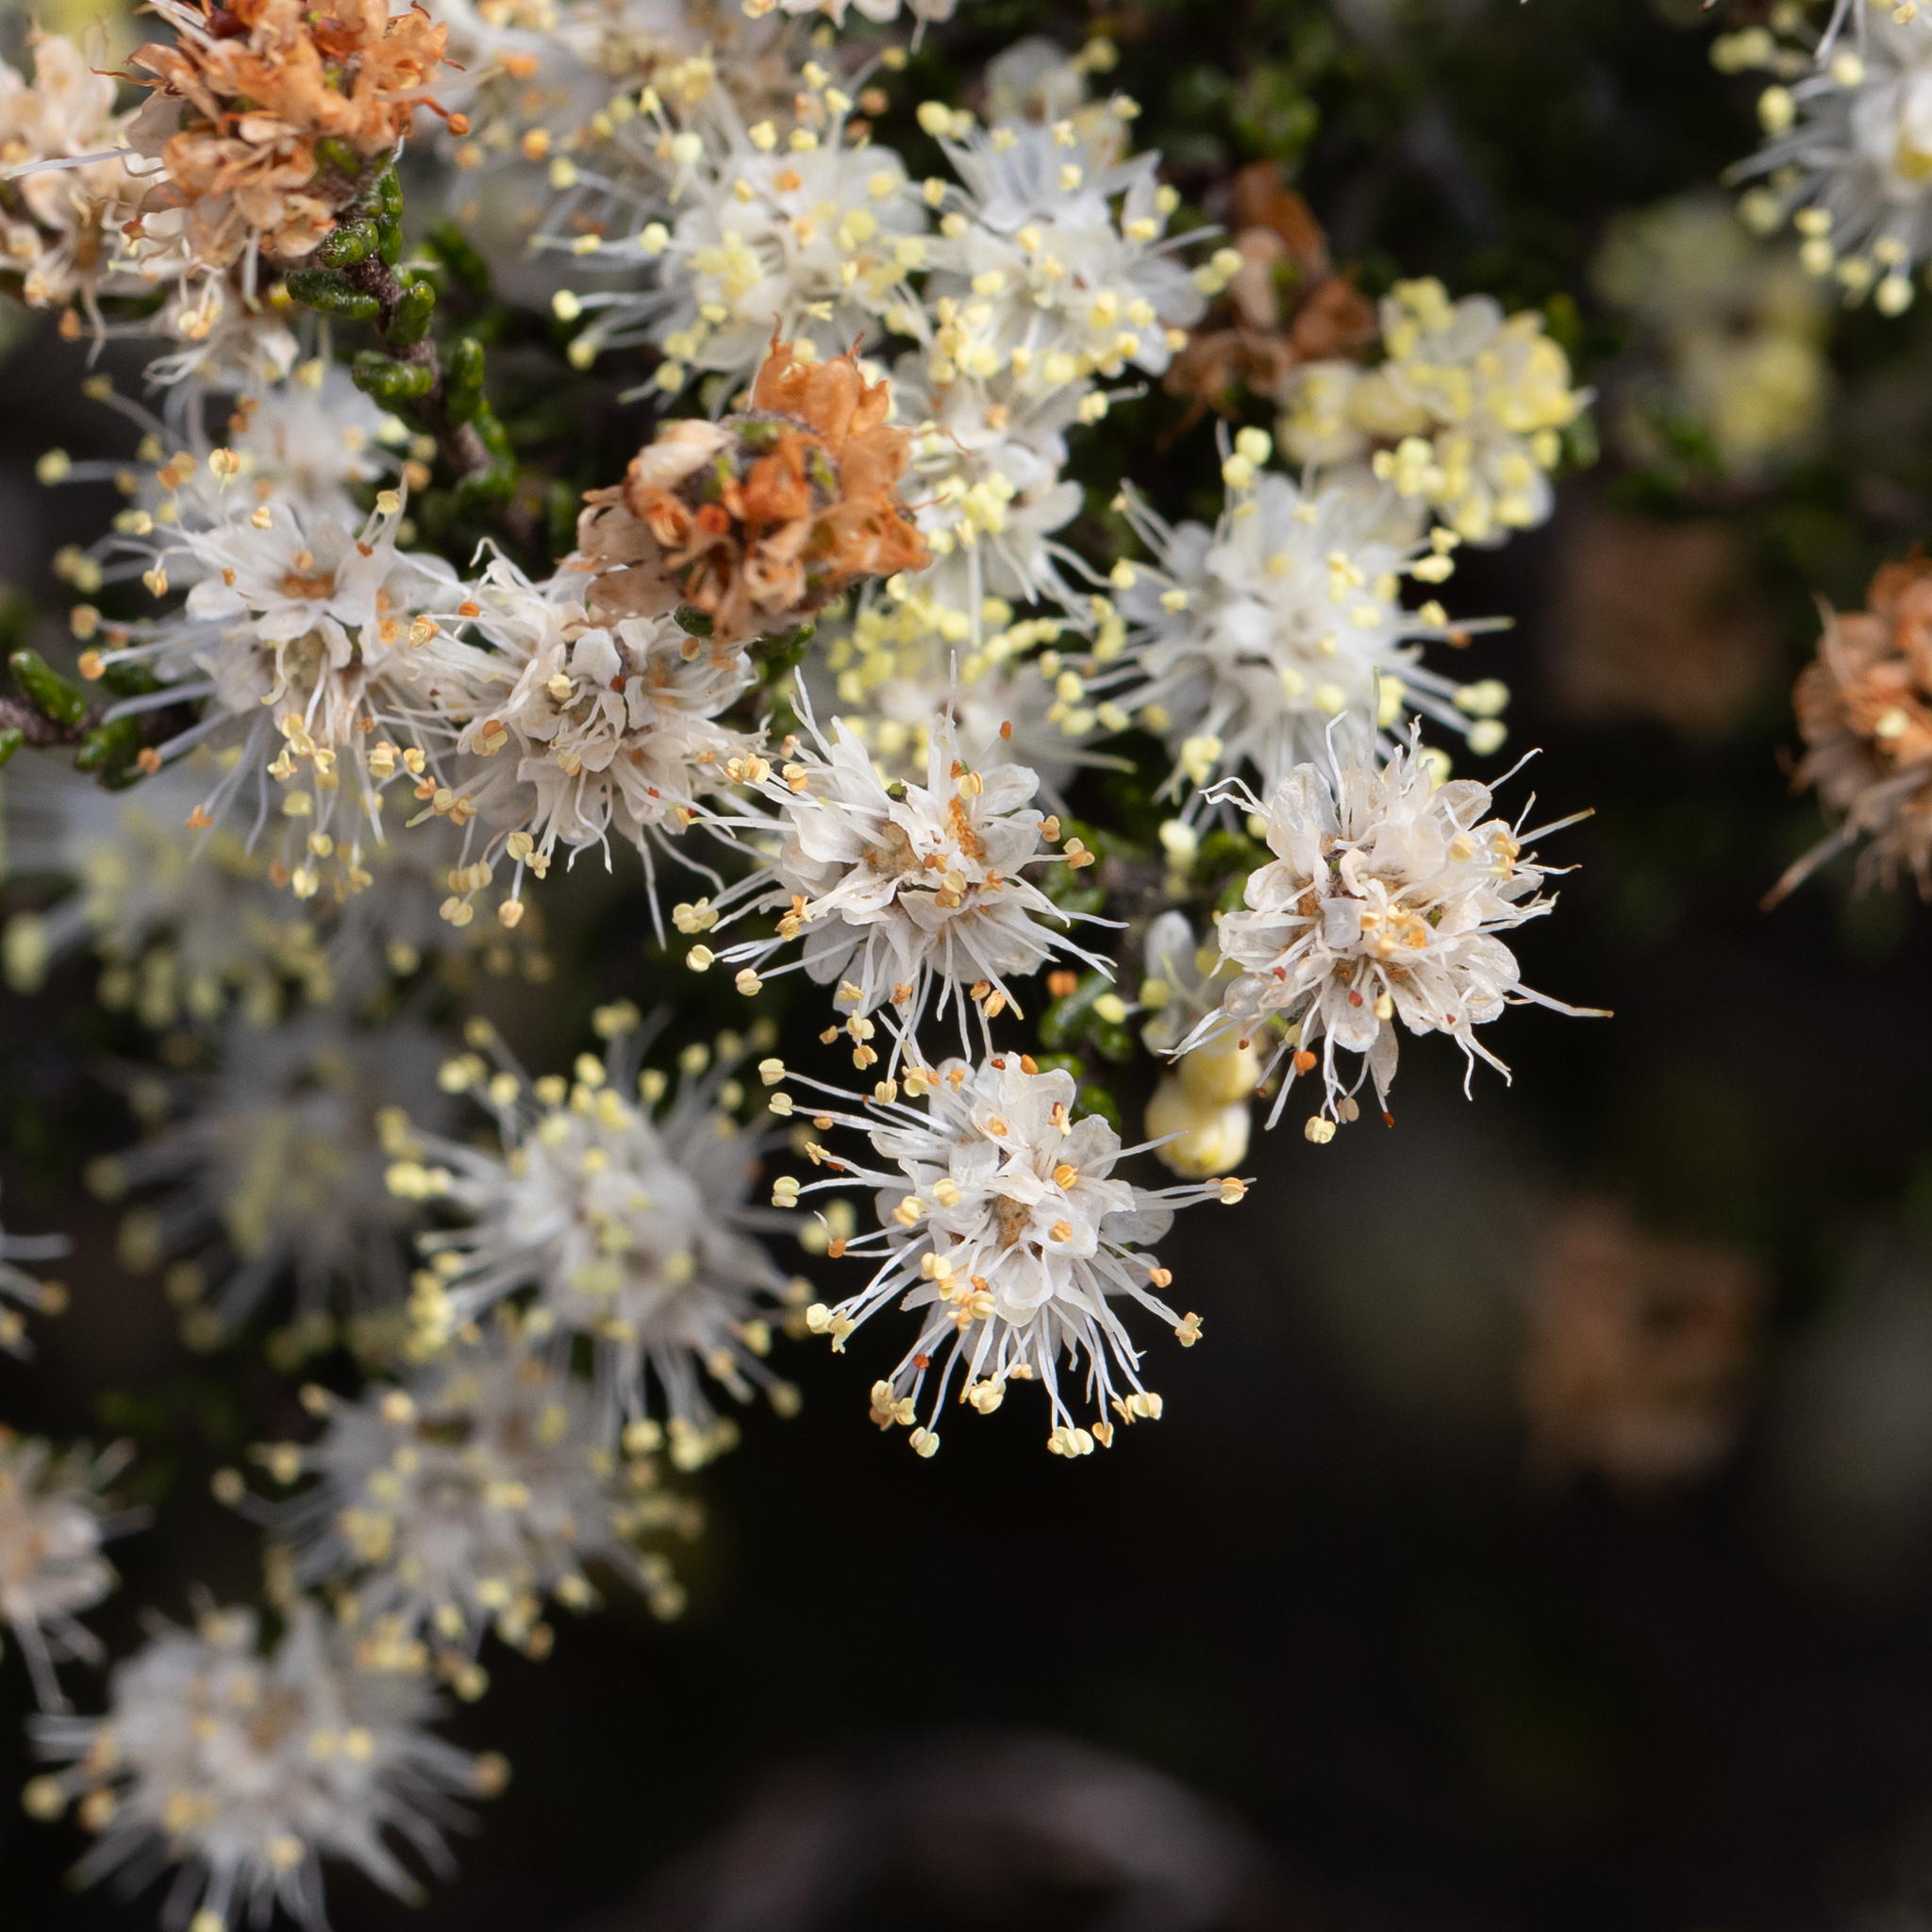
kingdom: Plantae
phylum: Tracheophyta
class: Magnoliopsida
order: Sapindales
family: Rutaceae
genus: Microcybe
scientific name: Microcybe multiflora
